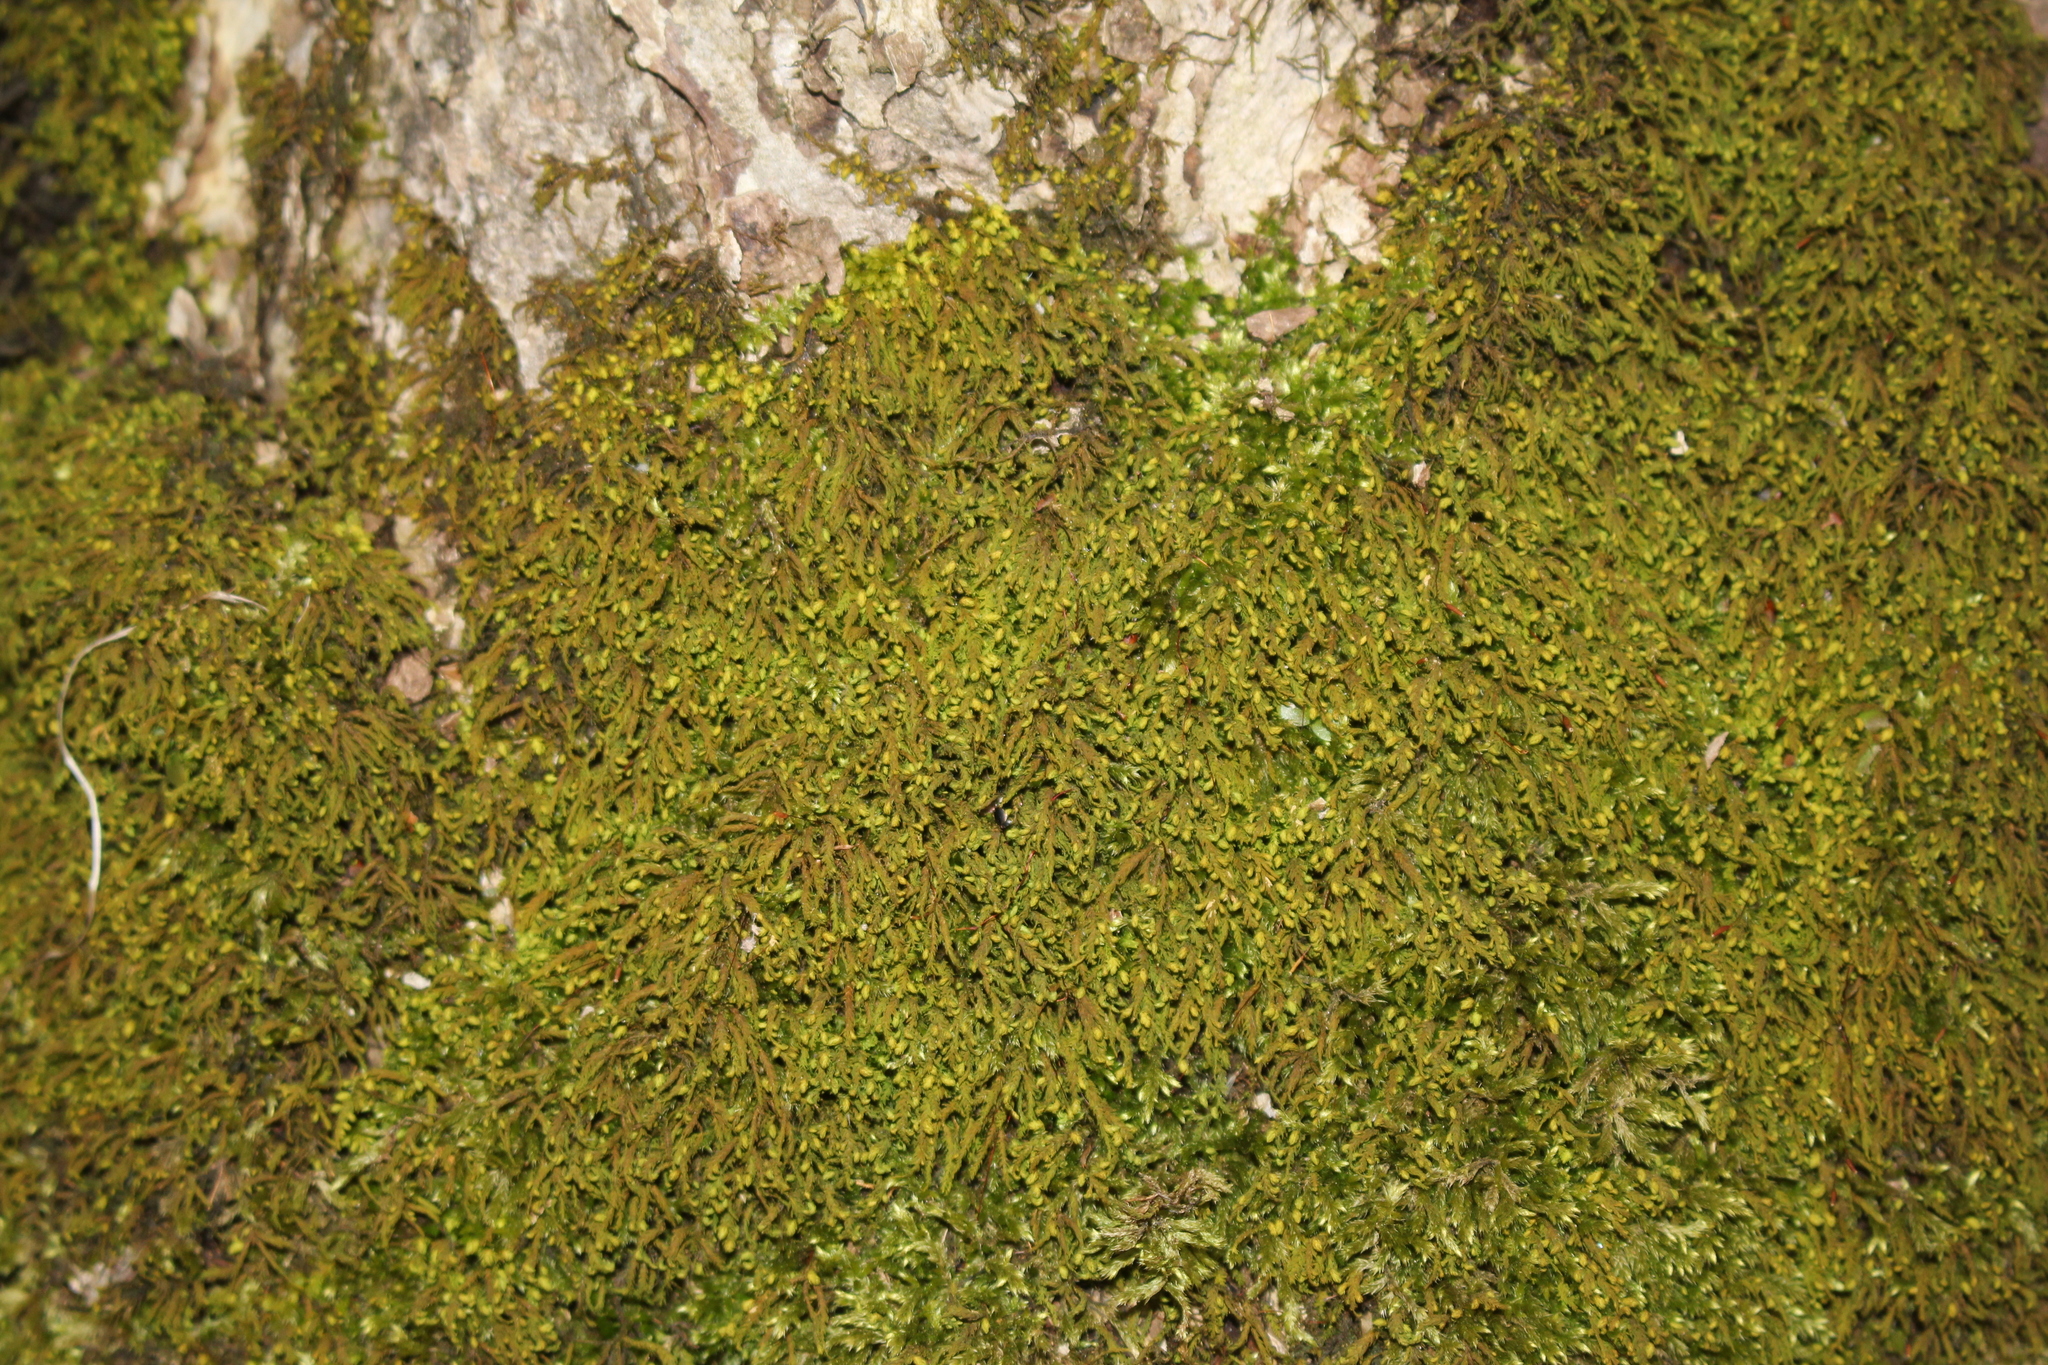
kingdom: Plantae
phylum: Bryophyta
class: Bryopsida
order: Hypnales
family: Neckeraceae
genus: Pseudanomodon
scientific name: Pseudanomodon attenuatus
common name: Tree-skirt moss
